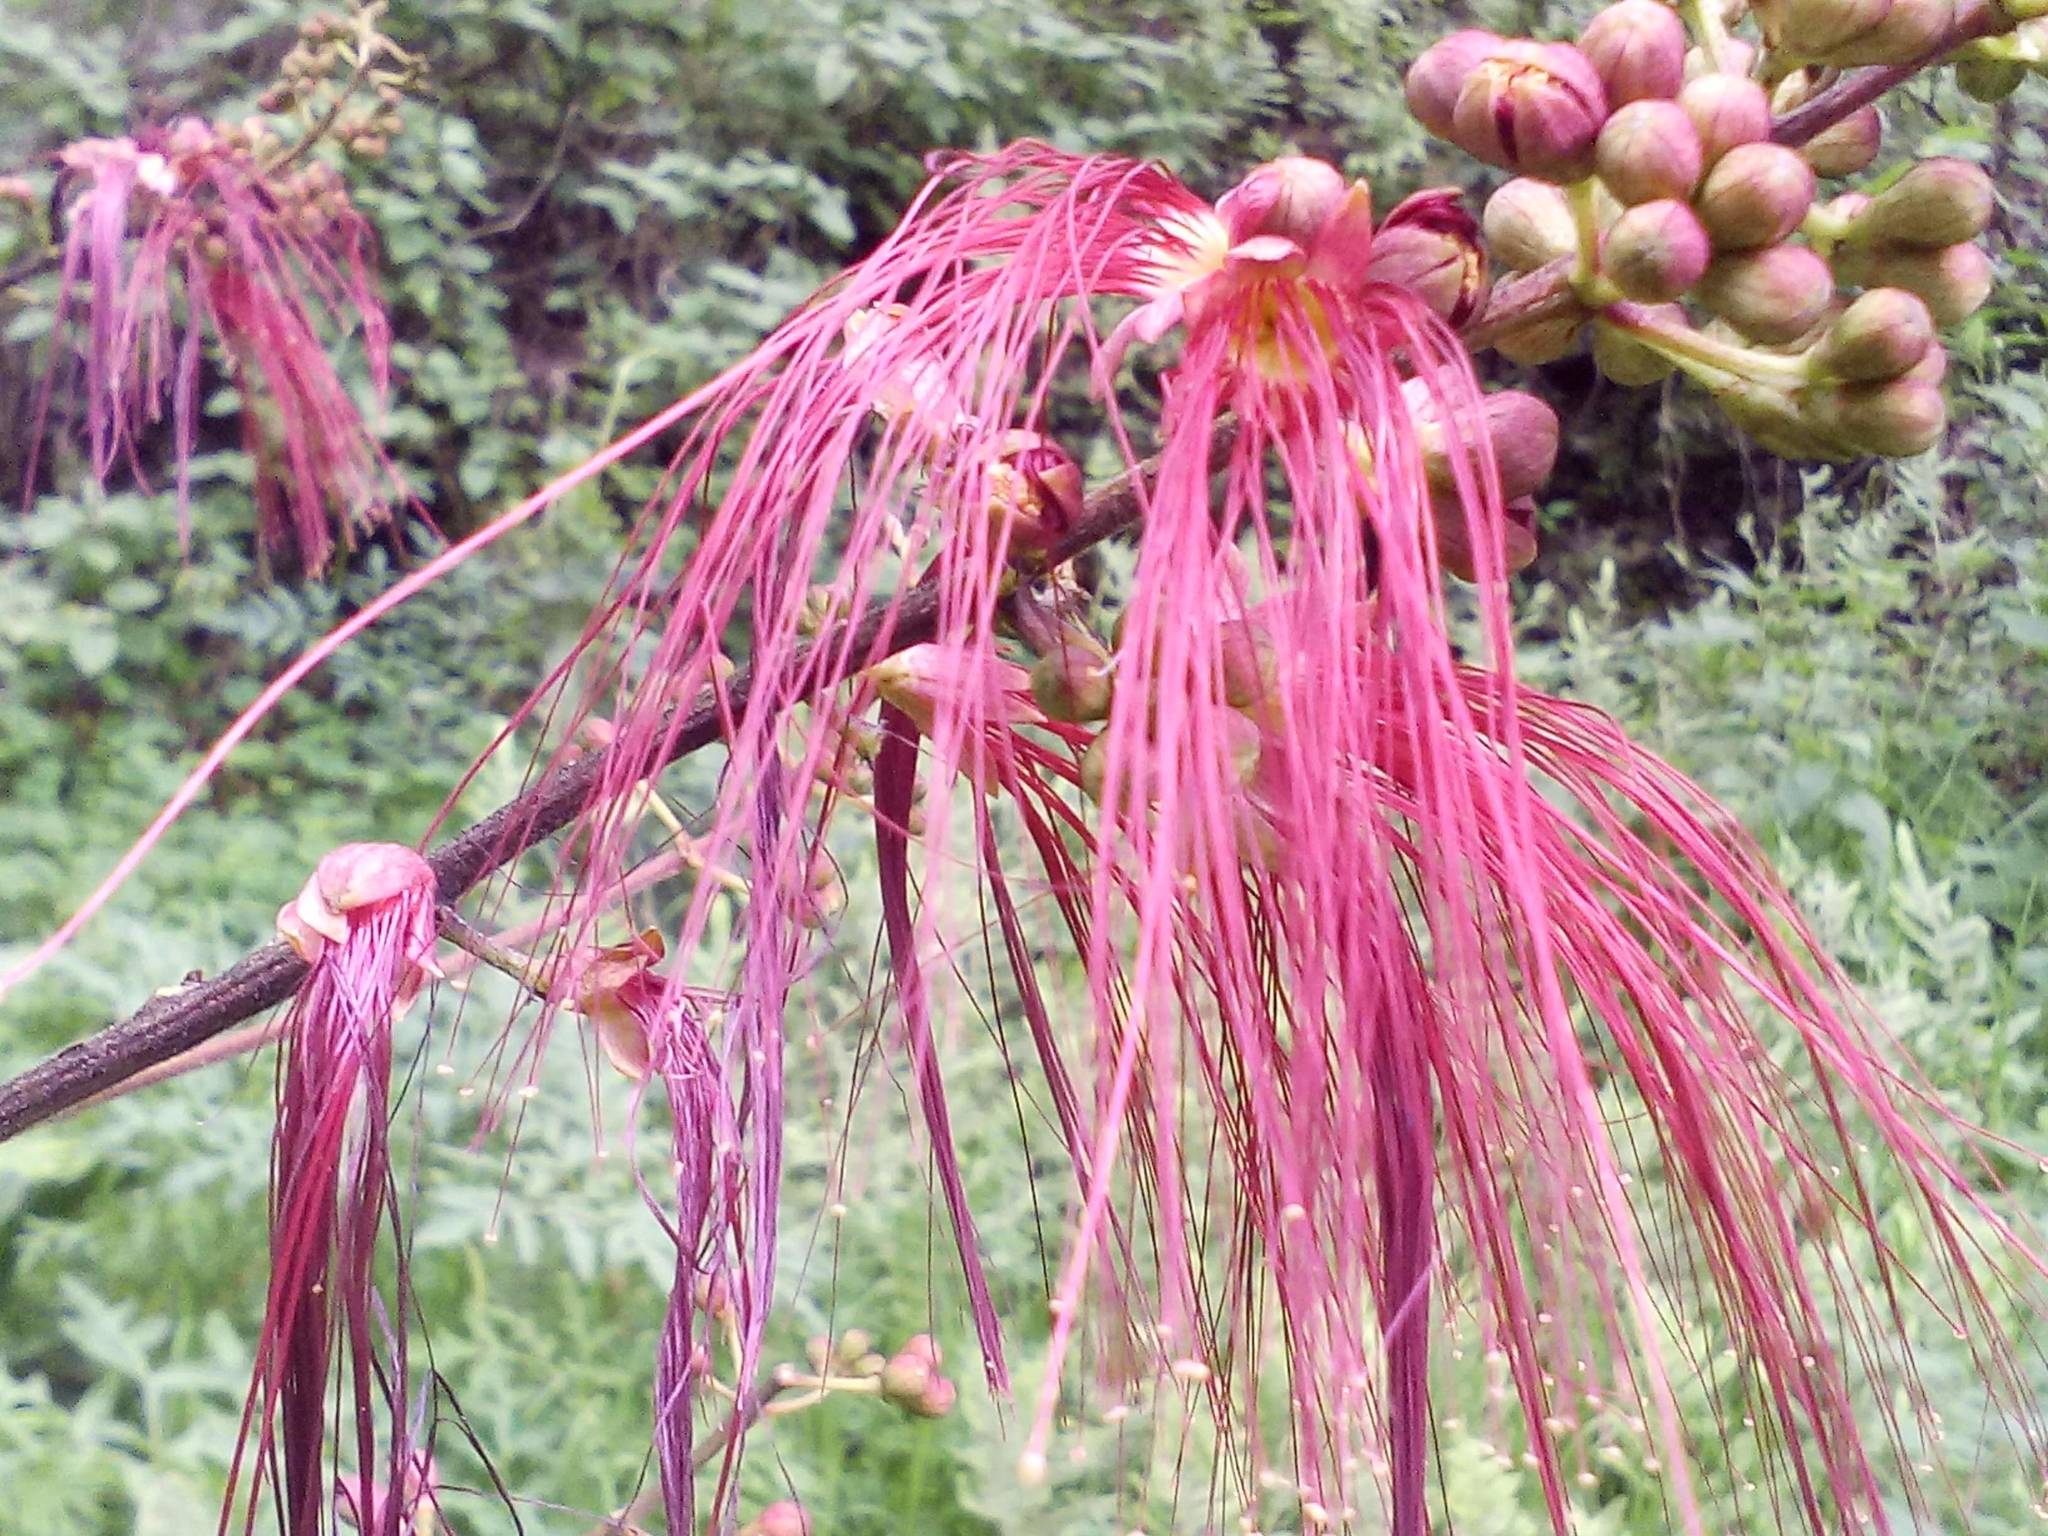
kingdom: Plantae
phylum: Tracheophyta
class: Magnoliopsida
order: Fabales
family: Fabaceae
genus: Calliandra
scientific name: Calliandra houstoniana
